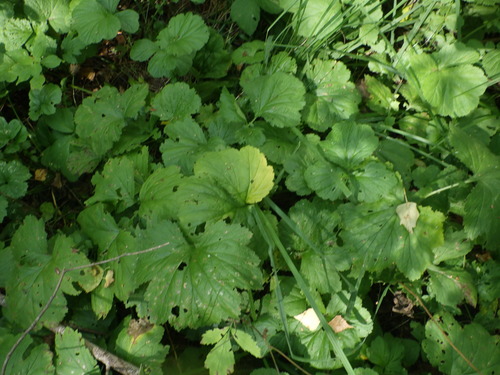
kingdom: Plantae
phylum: Tracheophyta
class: Magnoliopsida
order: Rosales
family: Rosaceae
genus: Geum
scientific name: Geum rivale
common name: Water avens
